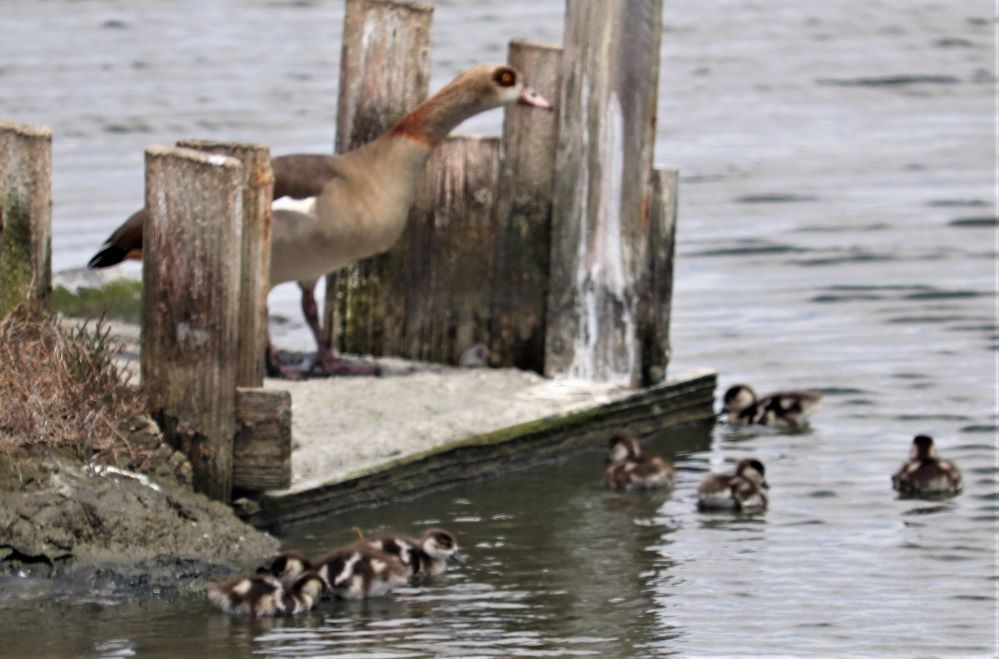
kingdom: Animalia
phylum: Chordata
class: Aves
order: Anseriformes
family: Anatidae
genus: Alopochen
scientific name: Alopochen aegyptiaca
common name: Egyptian goose
